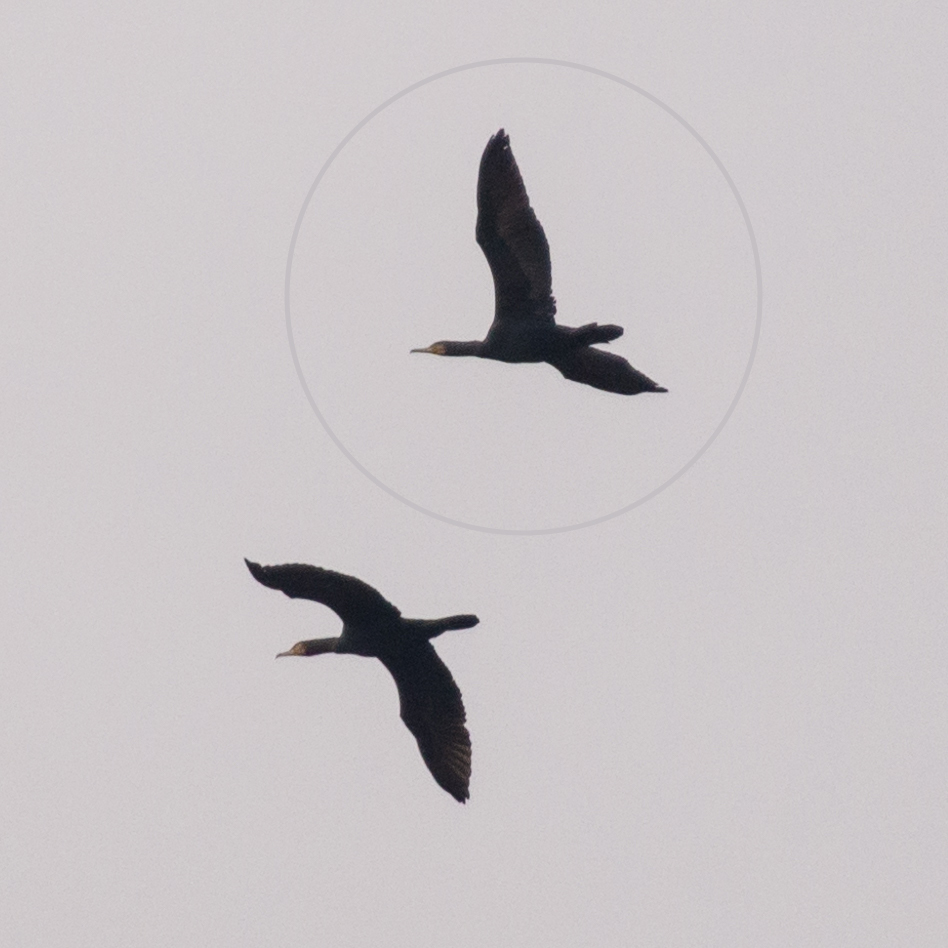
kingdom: Animalia
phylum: Chordata
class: Aves
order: Suliformes
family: Phalacrocoracidae
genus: Phalacrocorax
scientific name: Phalacrocorax carbo
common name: Great cormorant
